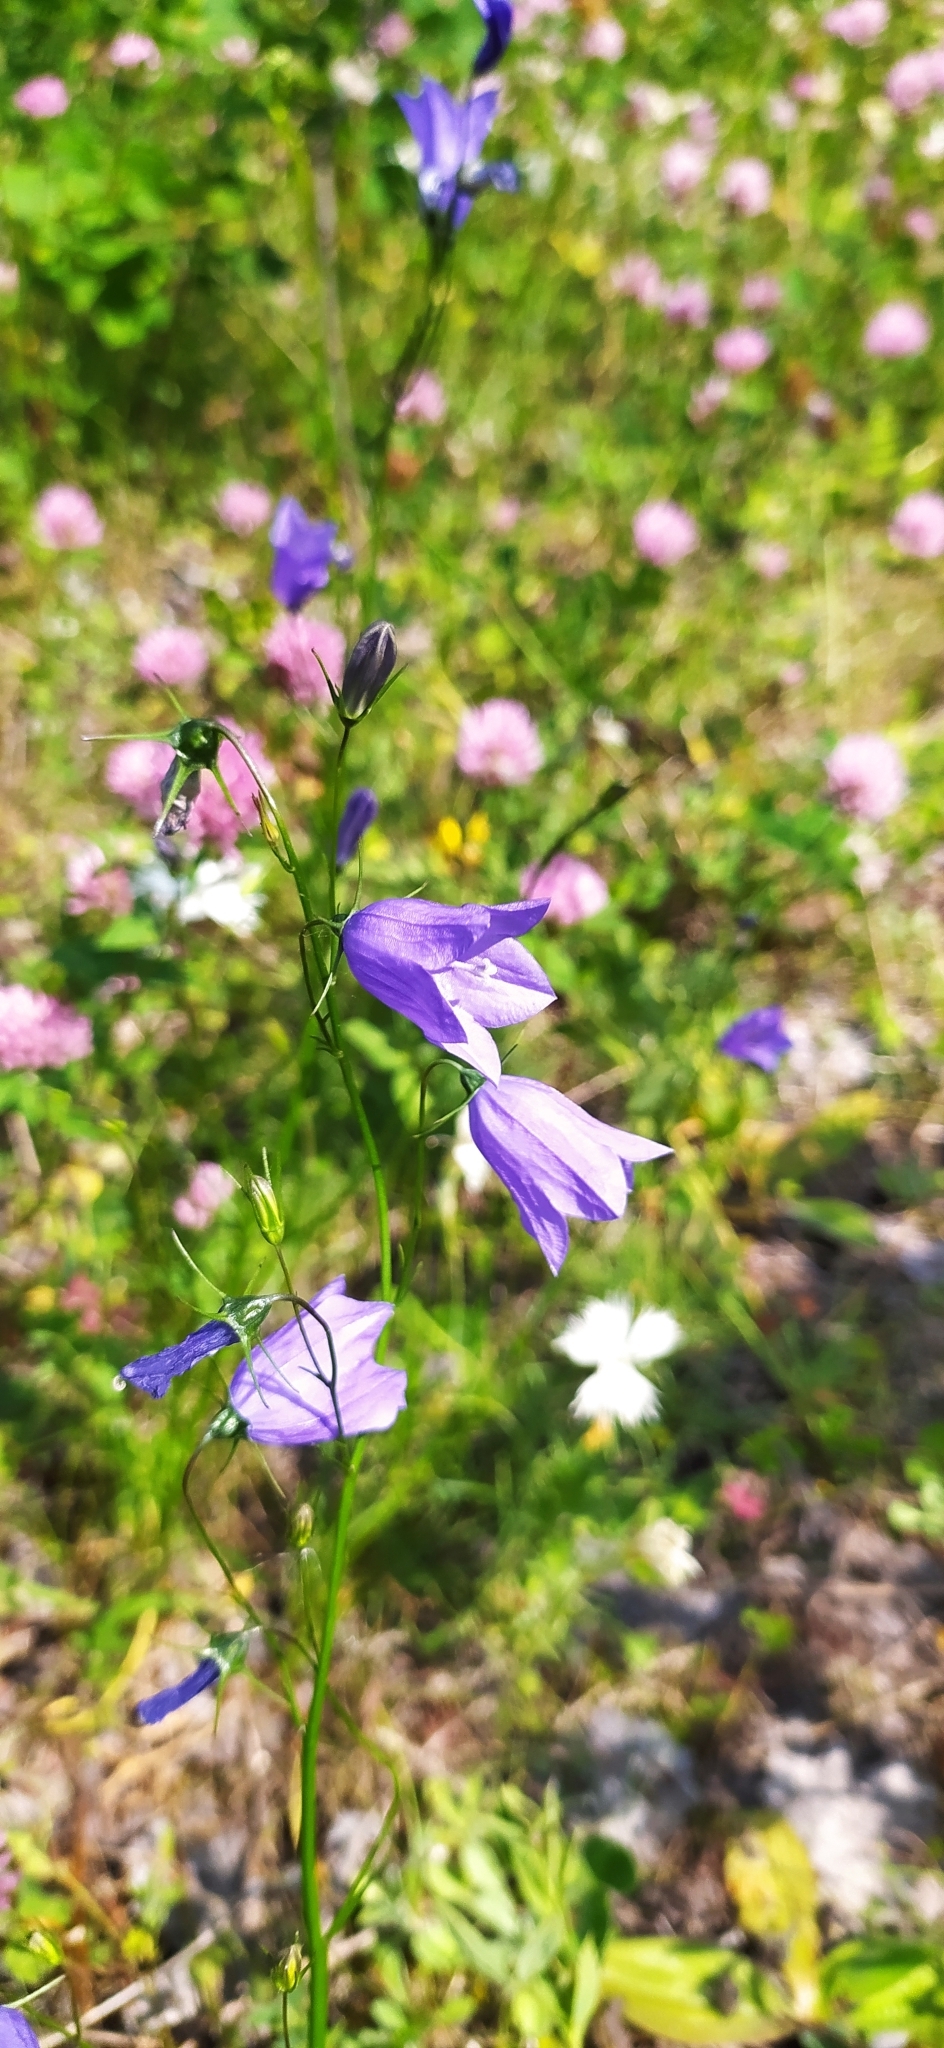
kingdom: Plantae
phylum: Tracheophyta
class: Magnoliopsida
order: Asterales
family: Campanulaceae
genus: Campanula
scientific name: Campanula rotundifolia
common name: Harebell
